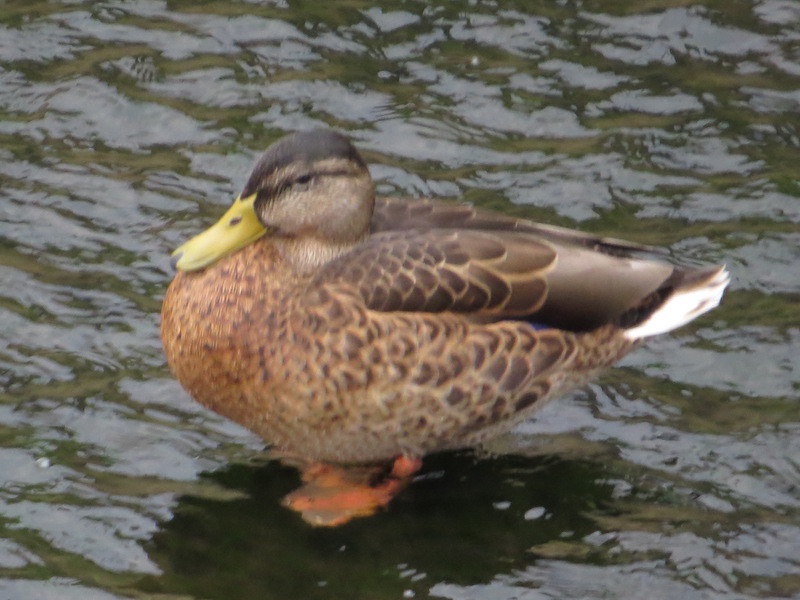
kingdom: Animalia
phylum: Chordata
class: Aves
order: Anseriformes
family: Anatidae
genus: Anas
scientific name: Anas platyrhynchos
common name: Mallard
